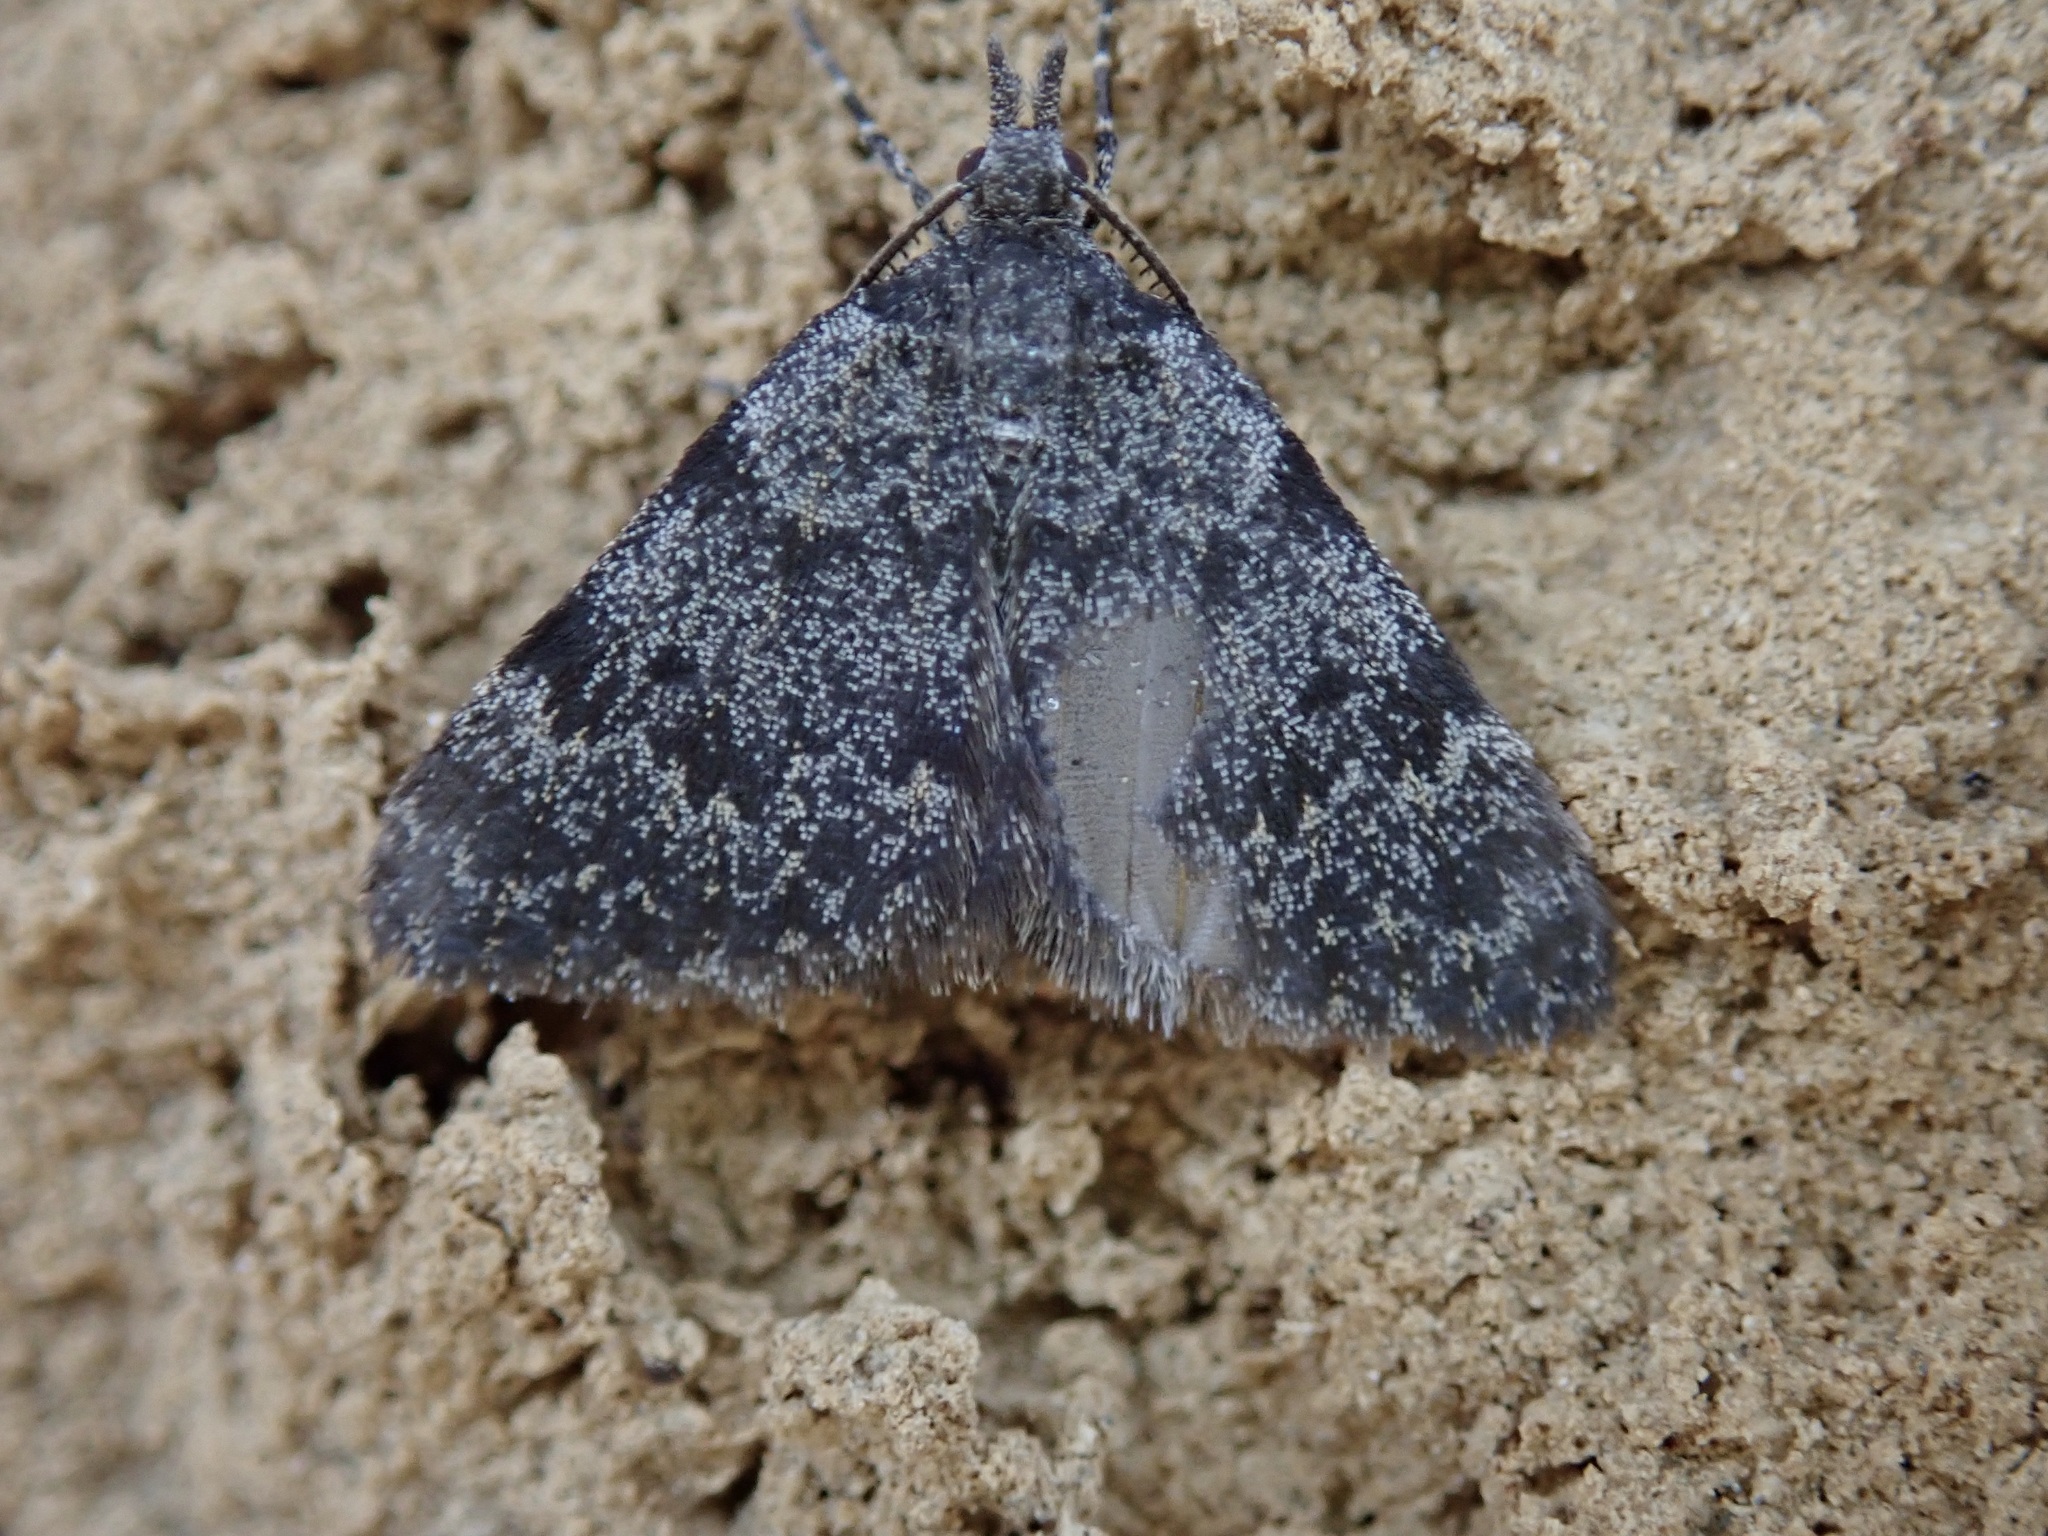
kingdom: Animalia
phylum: Arthropoda
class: Insecta
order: Lepidoptera
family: Geometridae
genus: Dichromodes
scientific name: Dichromodes cynica
